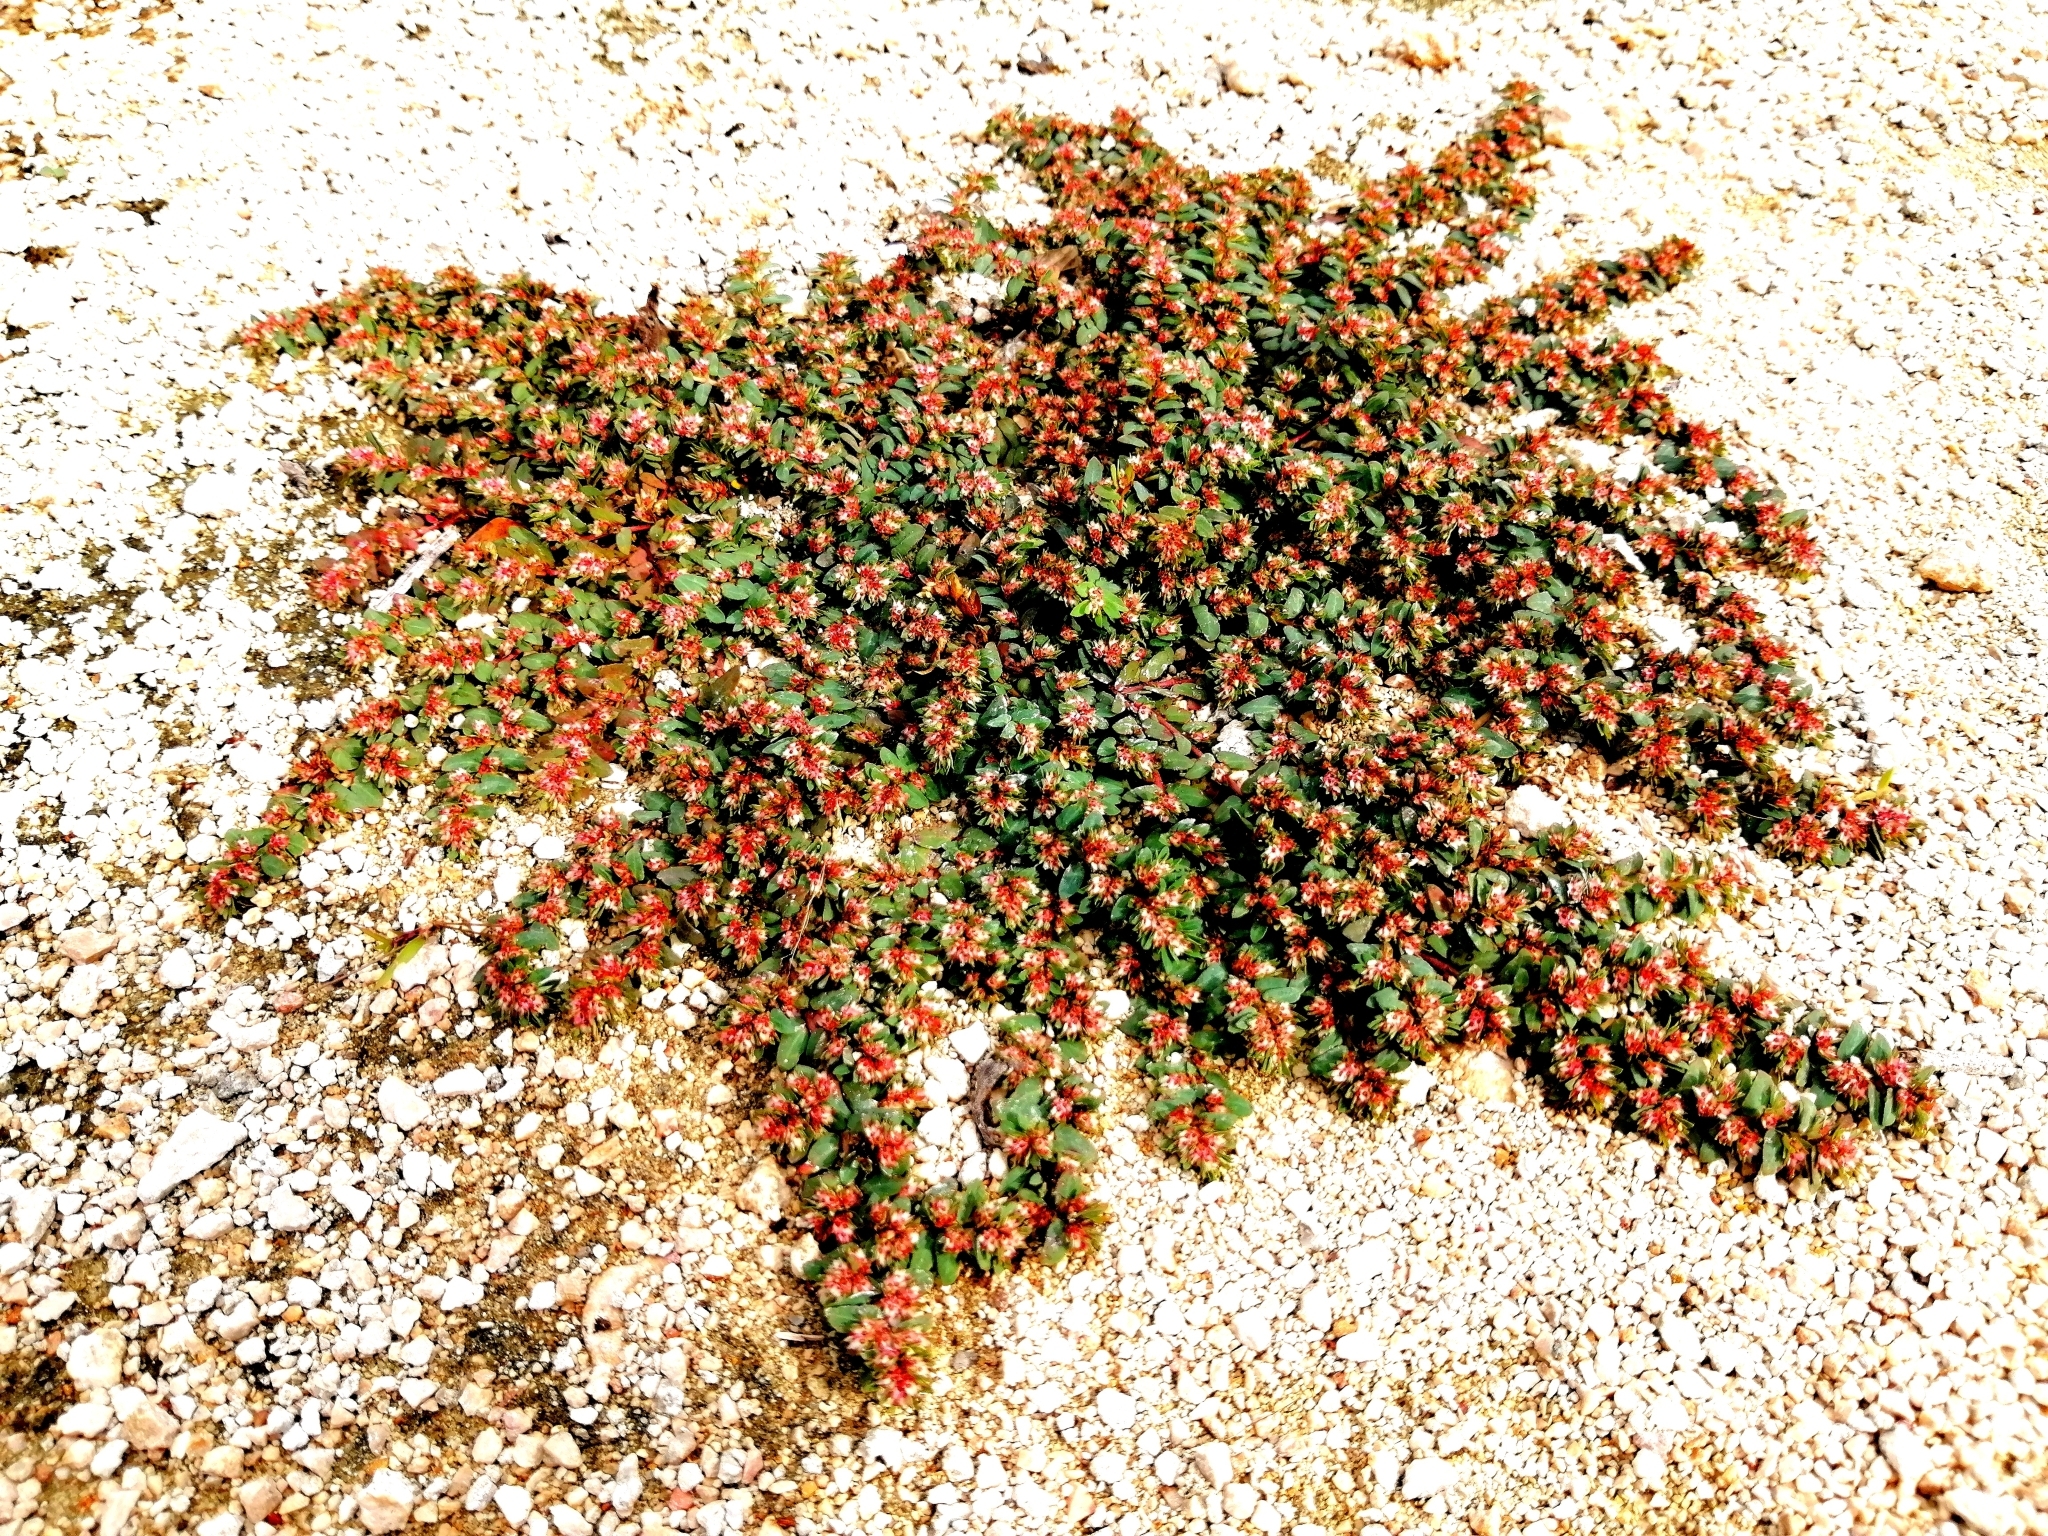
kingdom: Plantae
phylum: Tracheophyta
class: Magnoliopsida
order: Malpighiales
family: Euphorbiaceae
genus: Euphorbia
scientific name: Euphorbia dioeca
